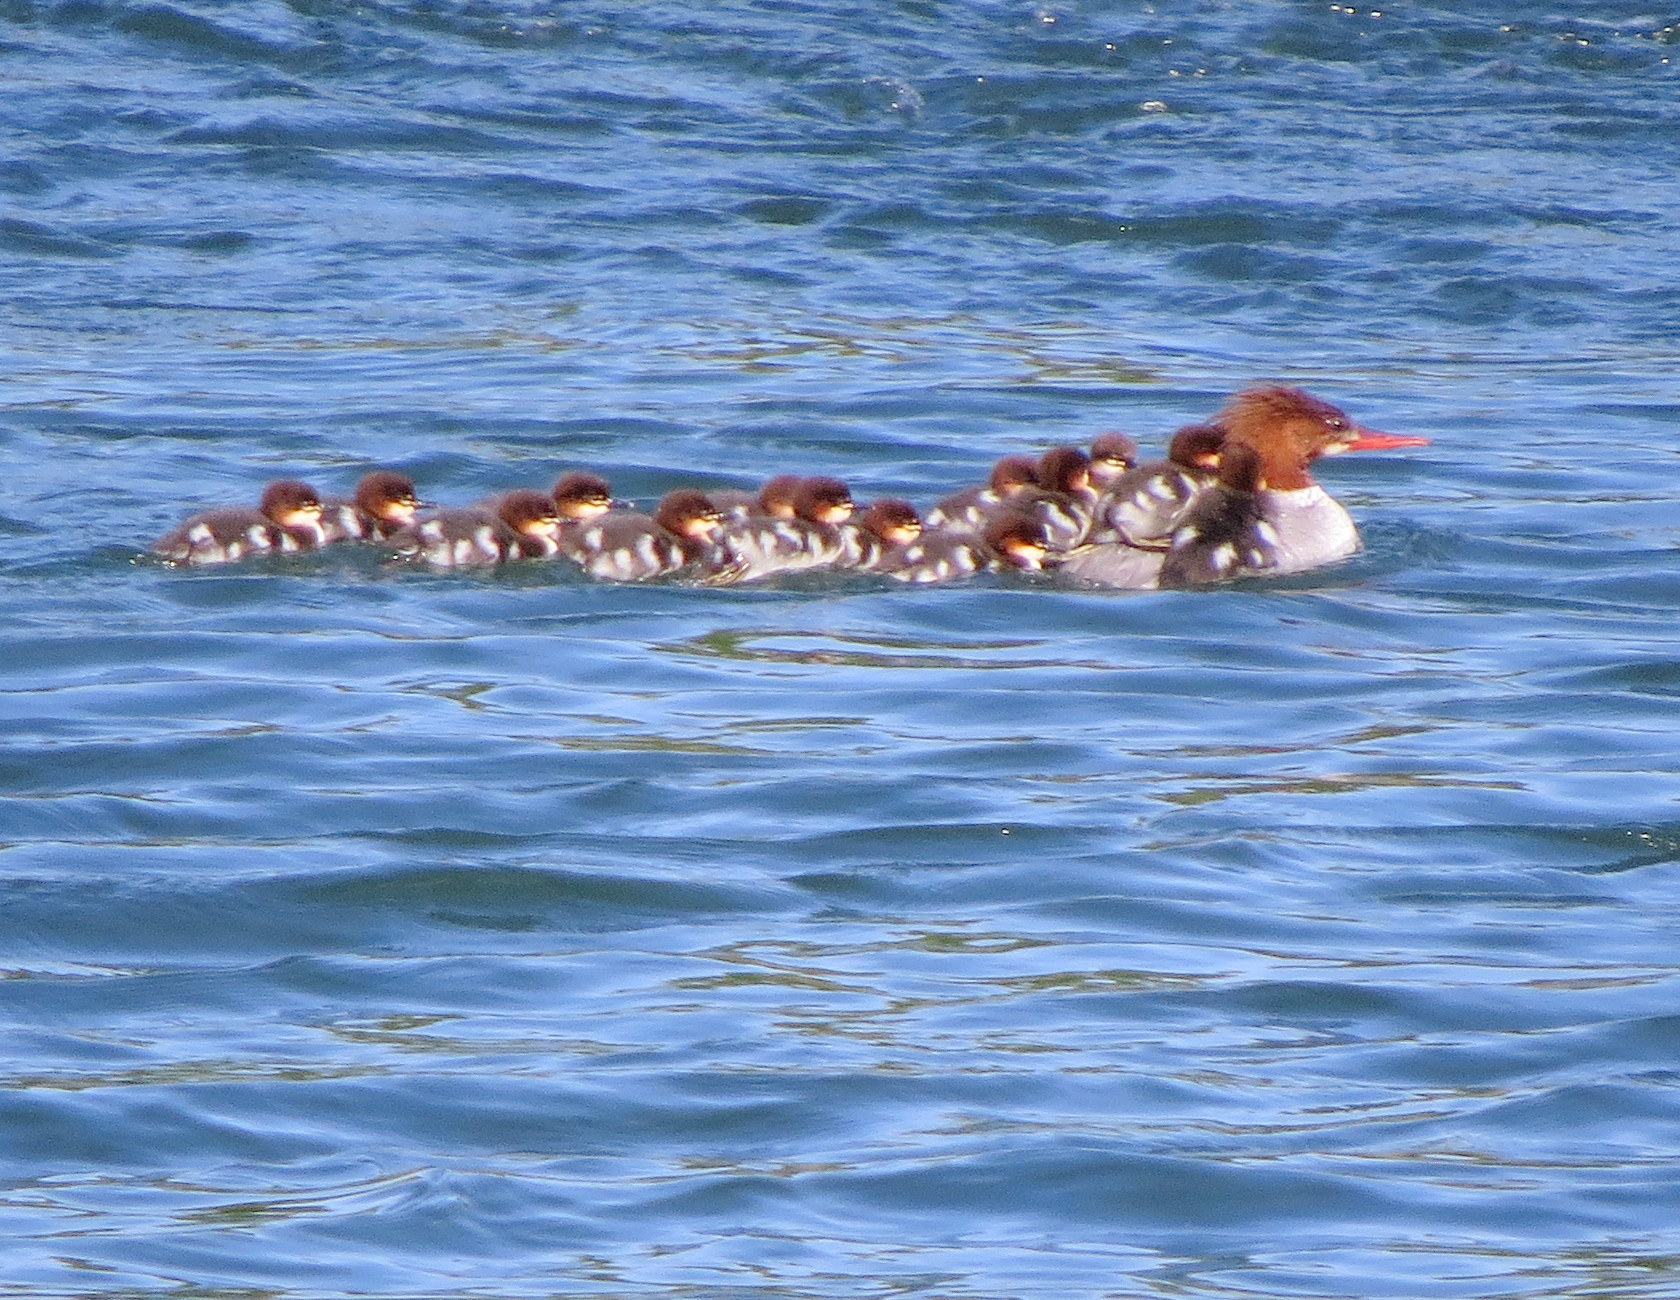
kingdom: Animalia
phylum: Chordata
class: Aves
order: Anseriformes
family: Anatidae
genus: Mergus
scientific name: Mergus merganser
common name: Common merganser
